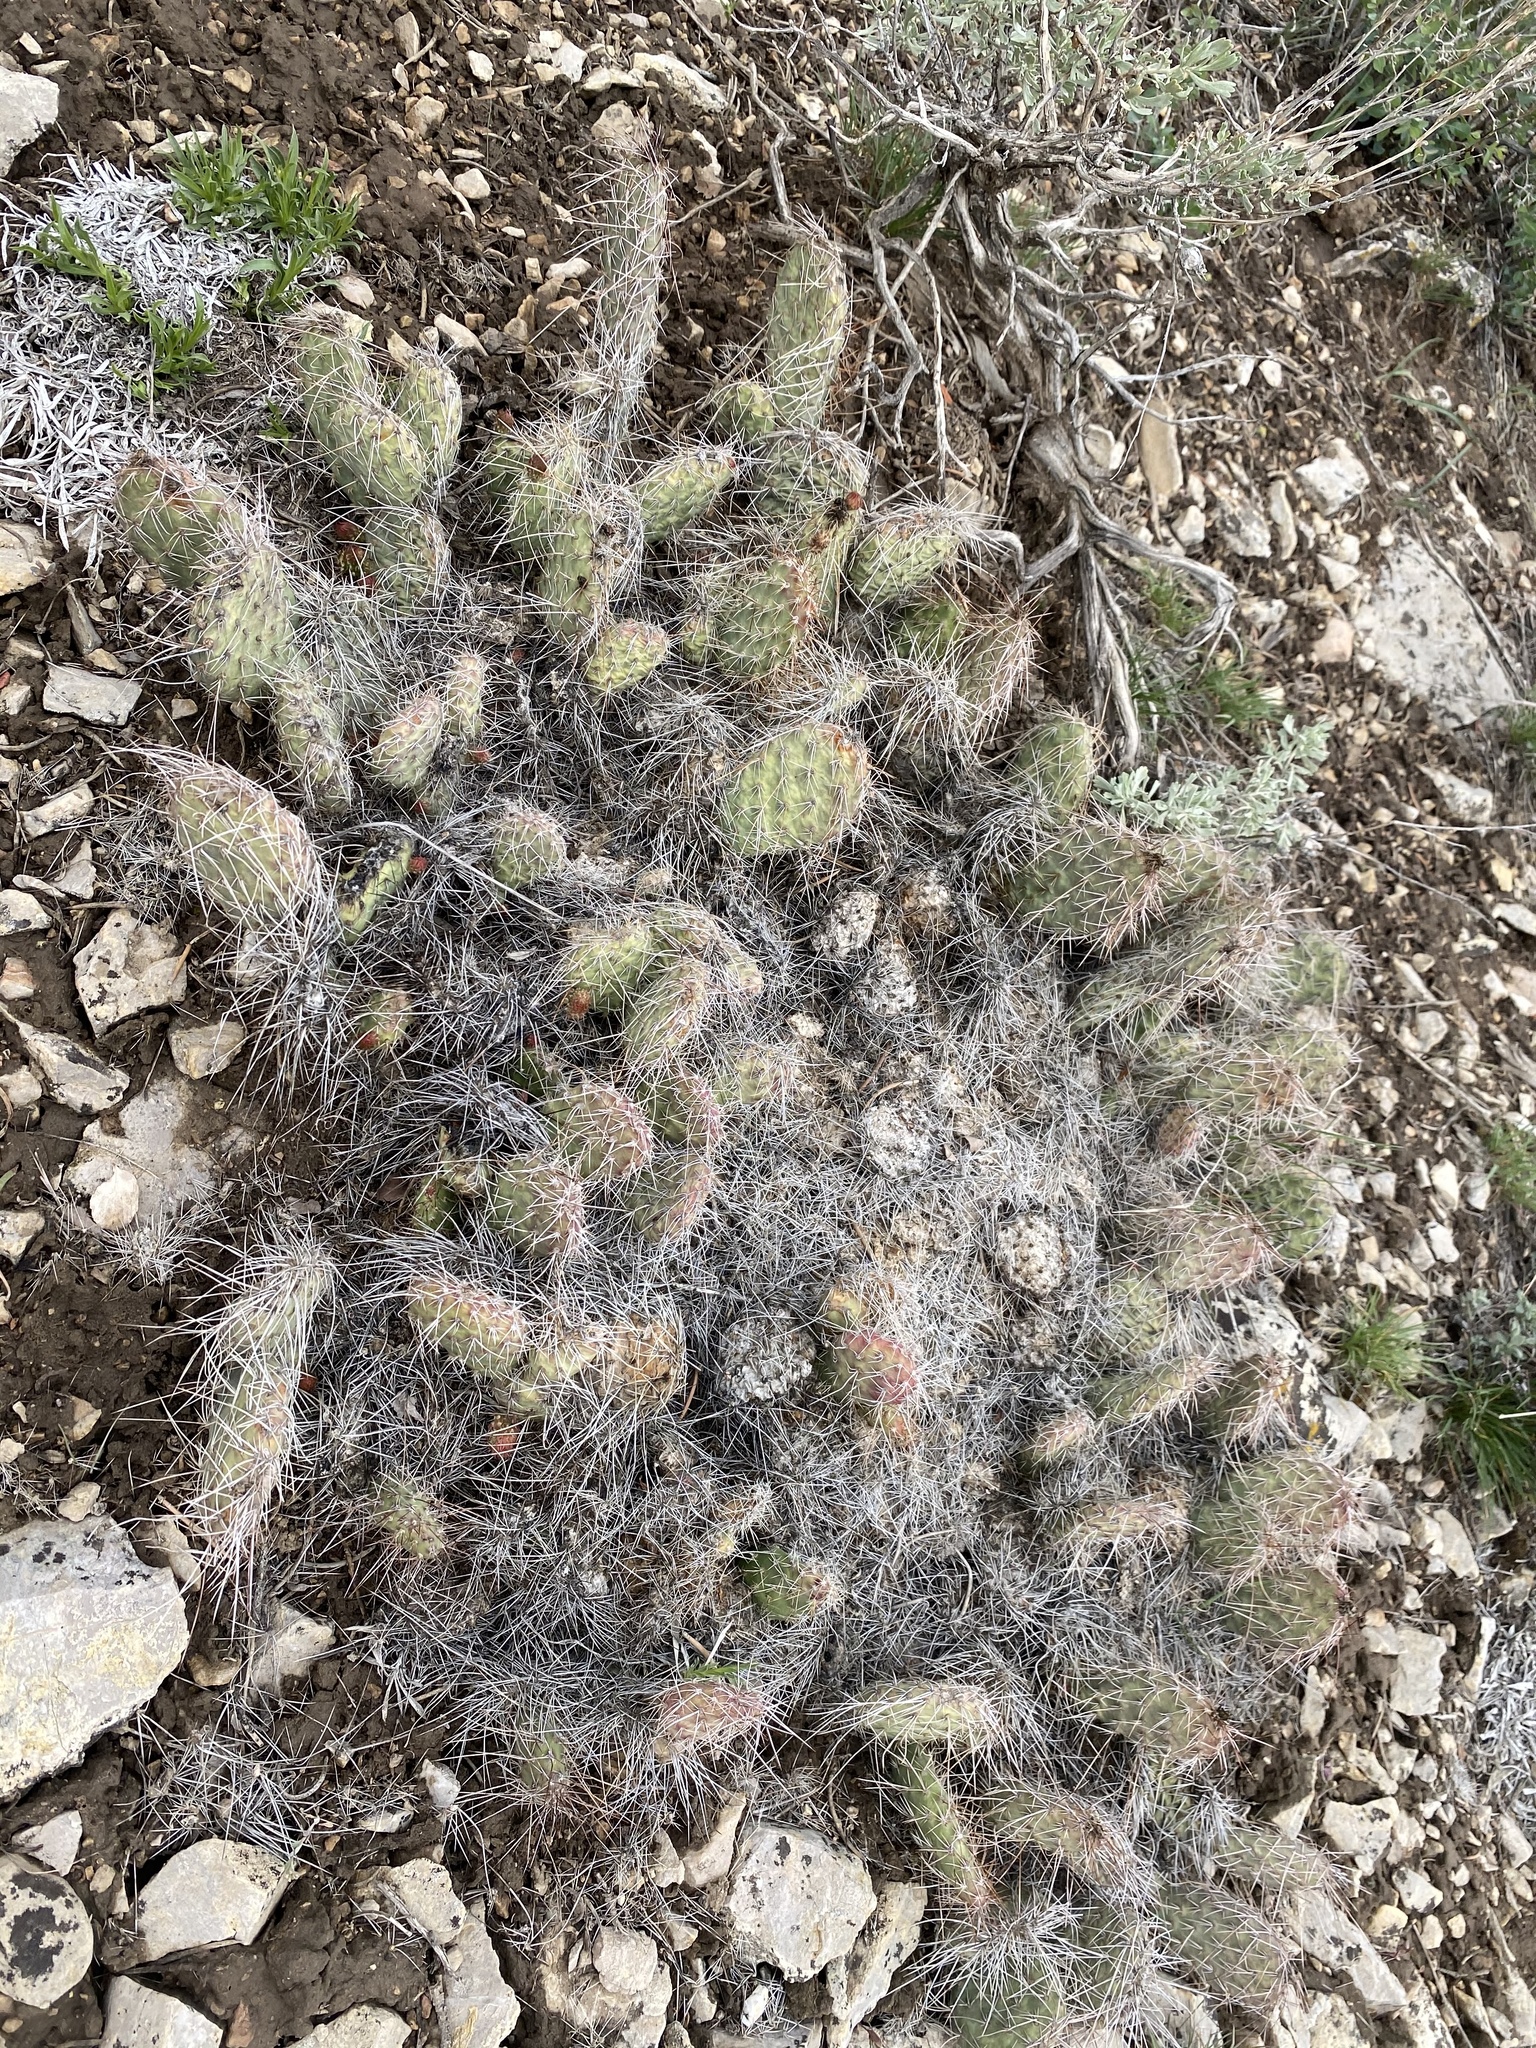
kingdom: Plantae
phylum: Tracheophyta
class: Magnoliopsida
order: Caryophyllales
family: Cactaceae
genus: Opuntia
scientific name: Opuntia polyacantha
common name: Plains prickly-pear
